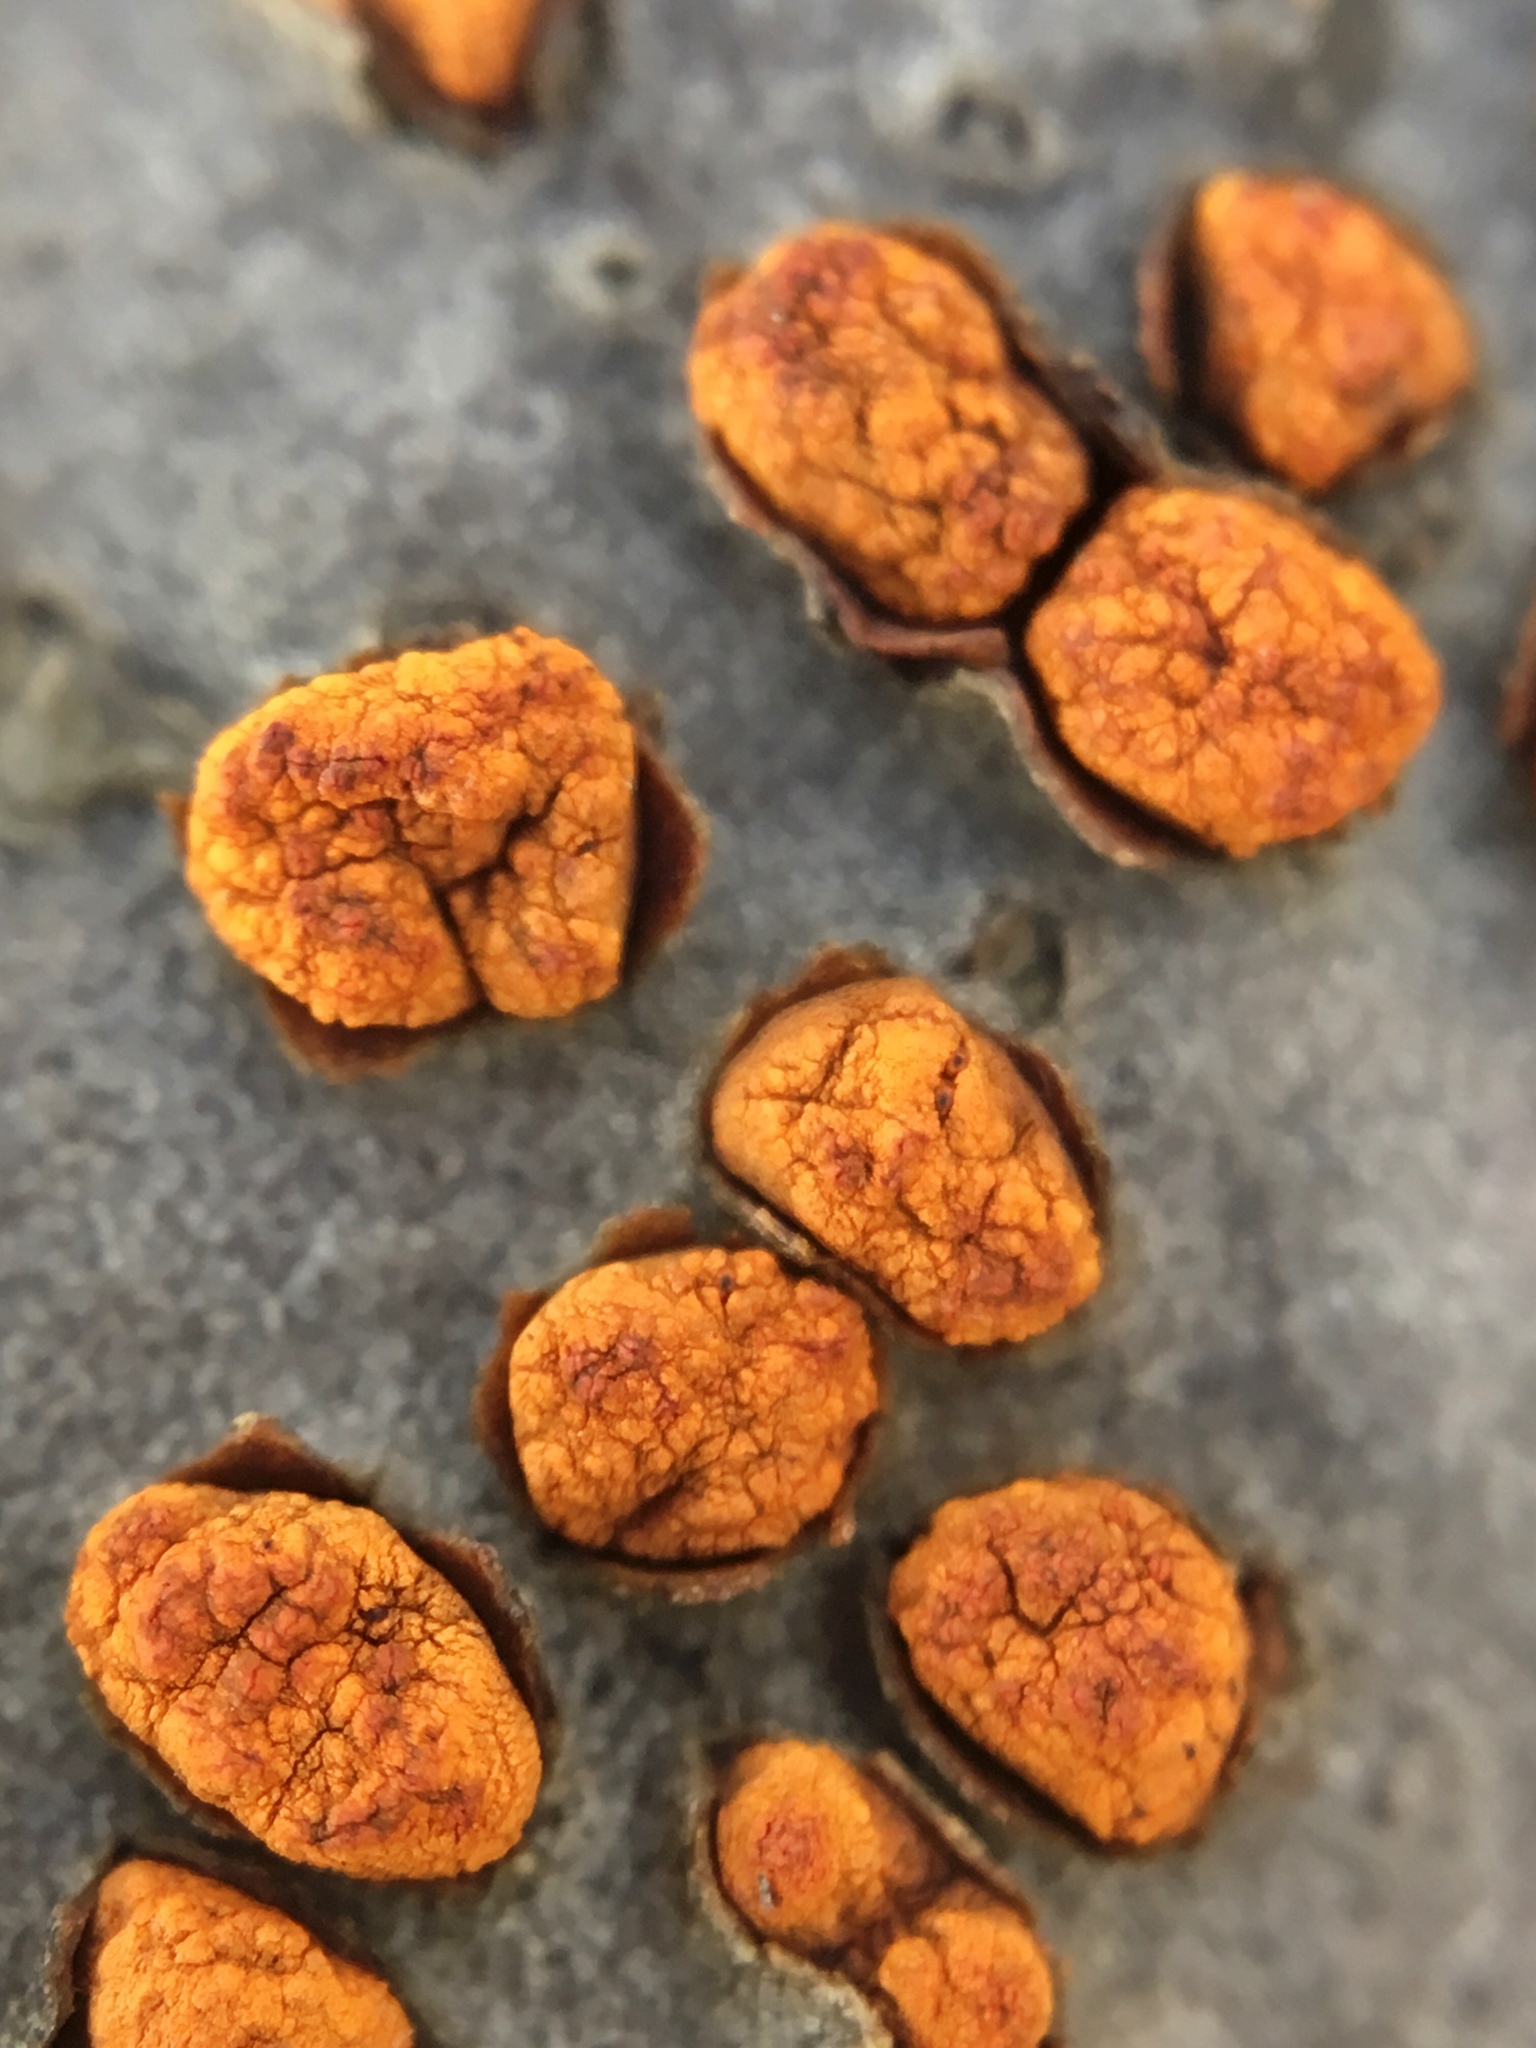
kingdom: Fungi
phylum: Ascomycota
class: Sordariomycetes
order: Diaporthales
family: Cryphonectriaceae
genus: Amphilogia
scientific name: Amphilogia gyrosa
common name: Orange hobnail canker
